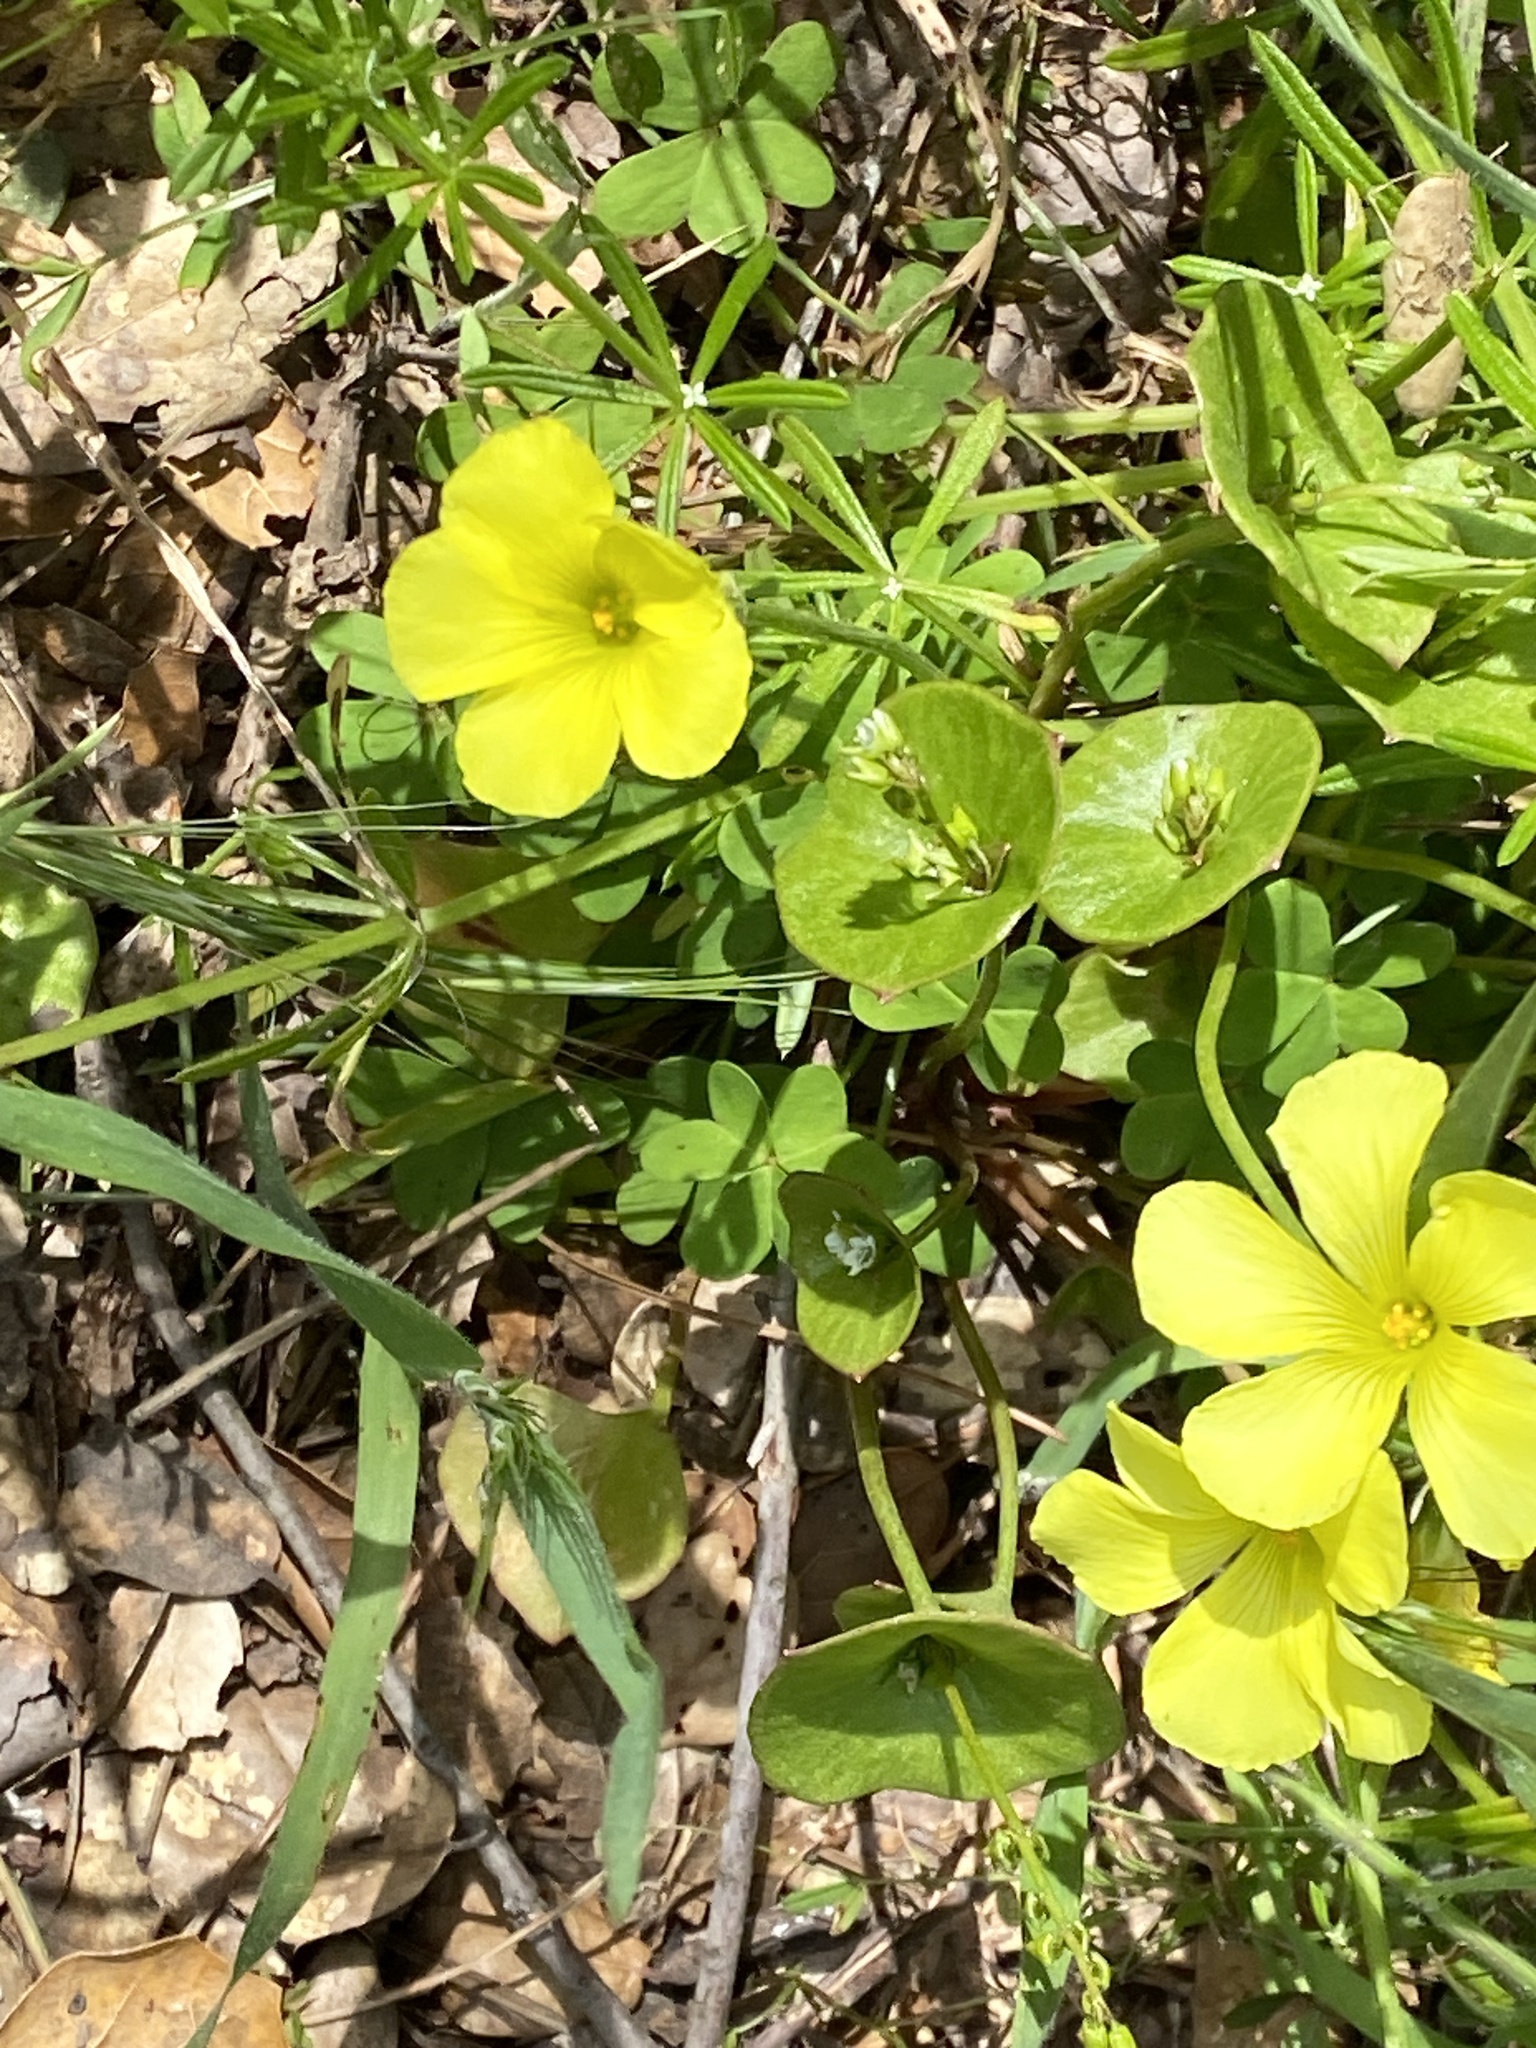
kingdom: Plantae
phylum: Tracheophyta
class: Magnoliopsida
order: Oxalidales
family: Oxalidaceae
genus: Oxalis
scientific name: Oxalis pes-caprae
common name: Bermuda-buttercup
